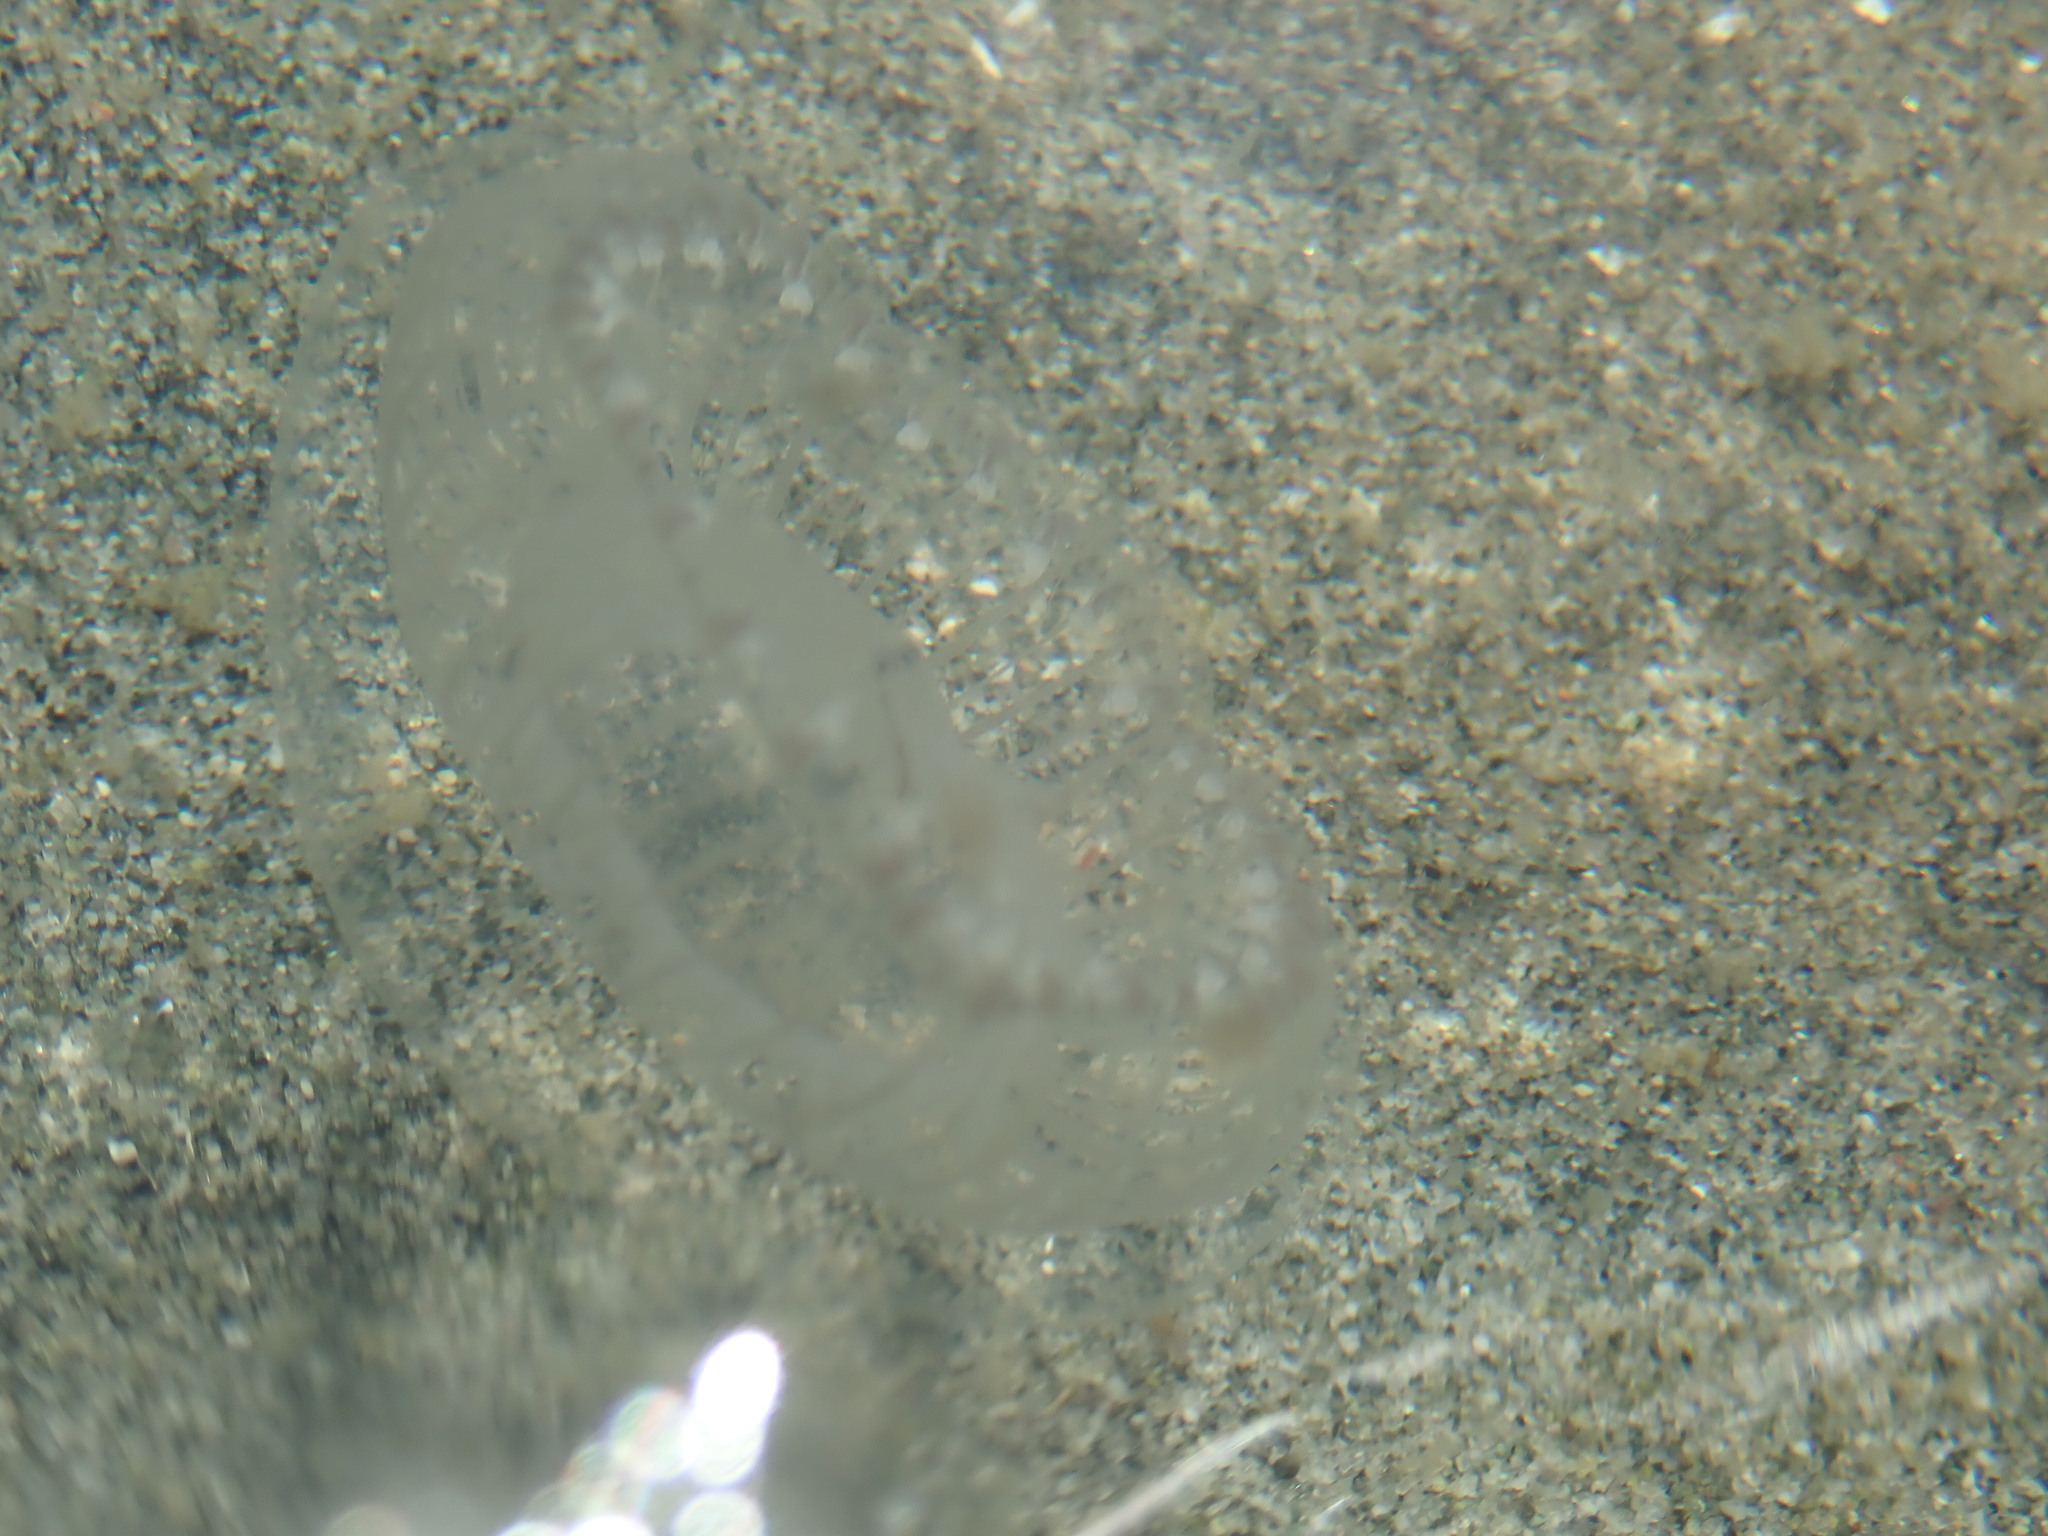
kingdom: Animalia
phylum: Cnidaria
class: Hydrozoa
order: Leptothecata
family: Aequoreidae
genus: Aequorea
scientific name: Aequorea victoria
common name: Water jellyfish
